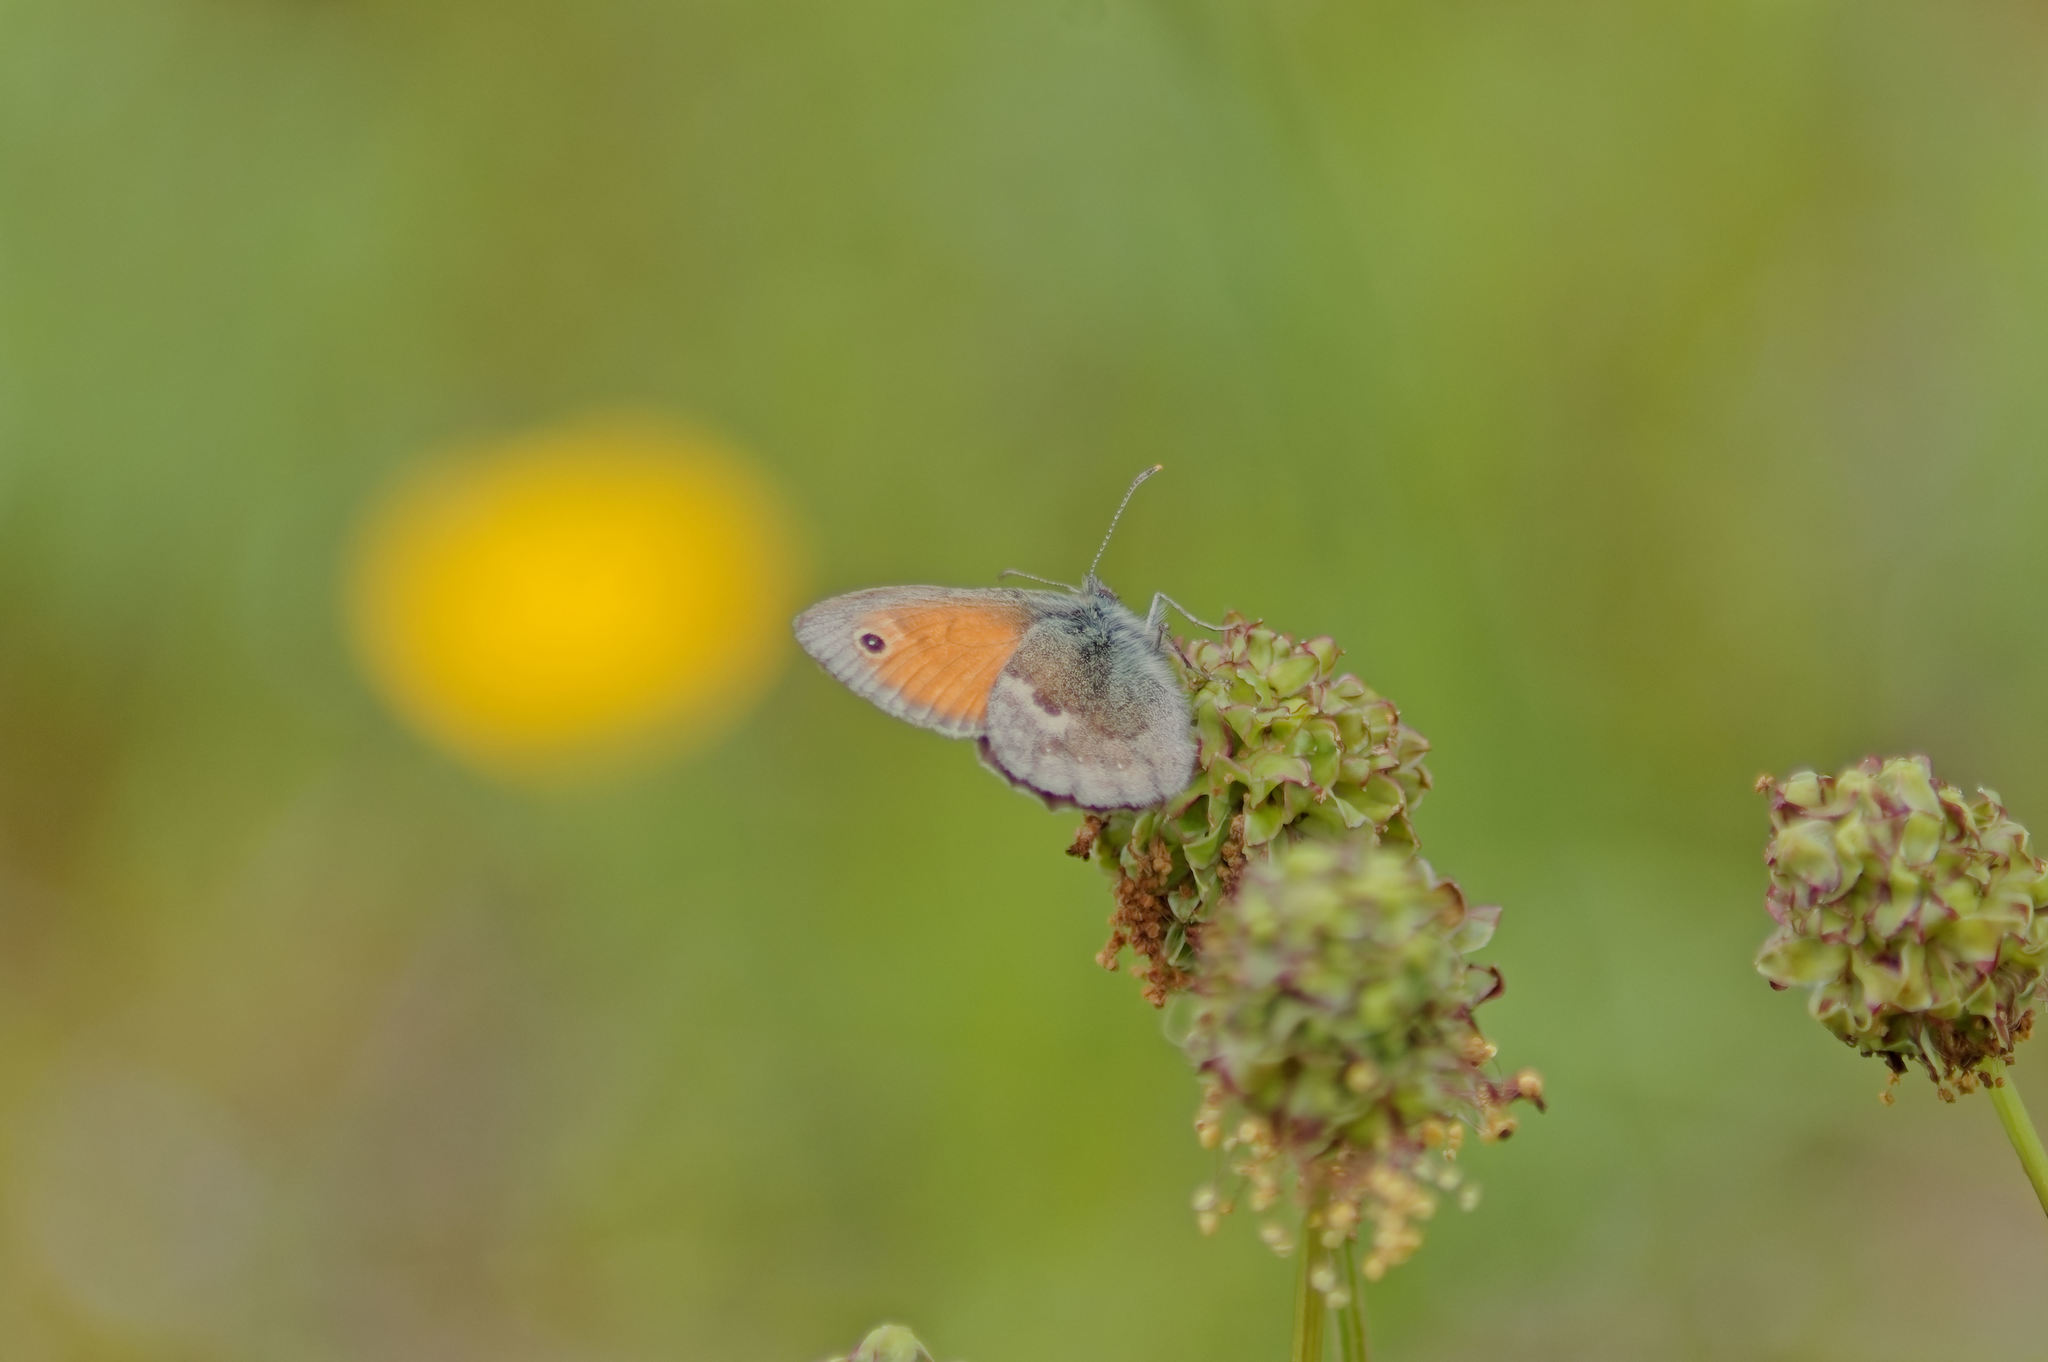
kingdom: Animalia
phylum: Arthropoda
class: Insecta
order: Lepidoptera
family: Nymphalidae
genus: Coenonympha
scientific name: Coenonympha pamphilus
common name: Small heath
